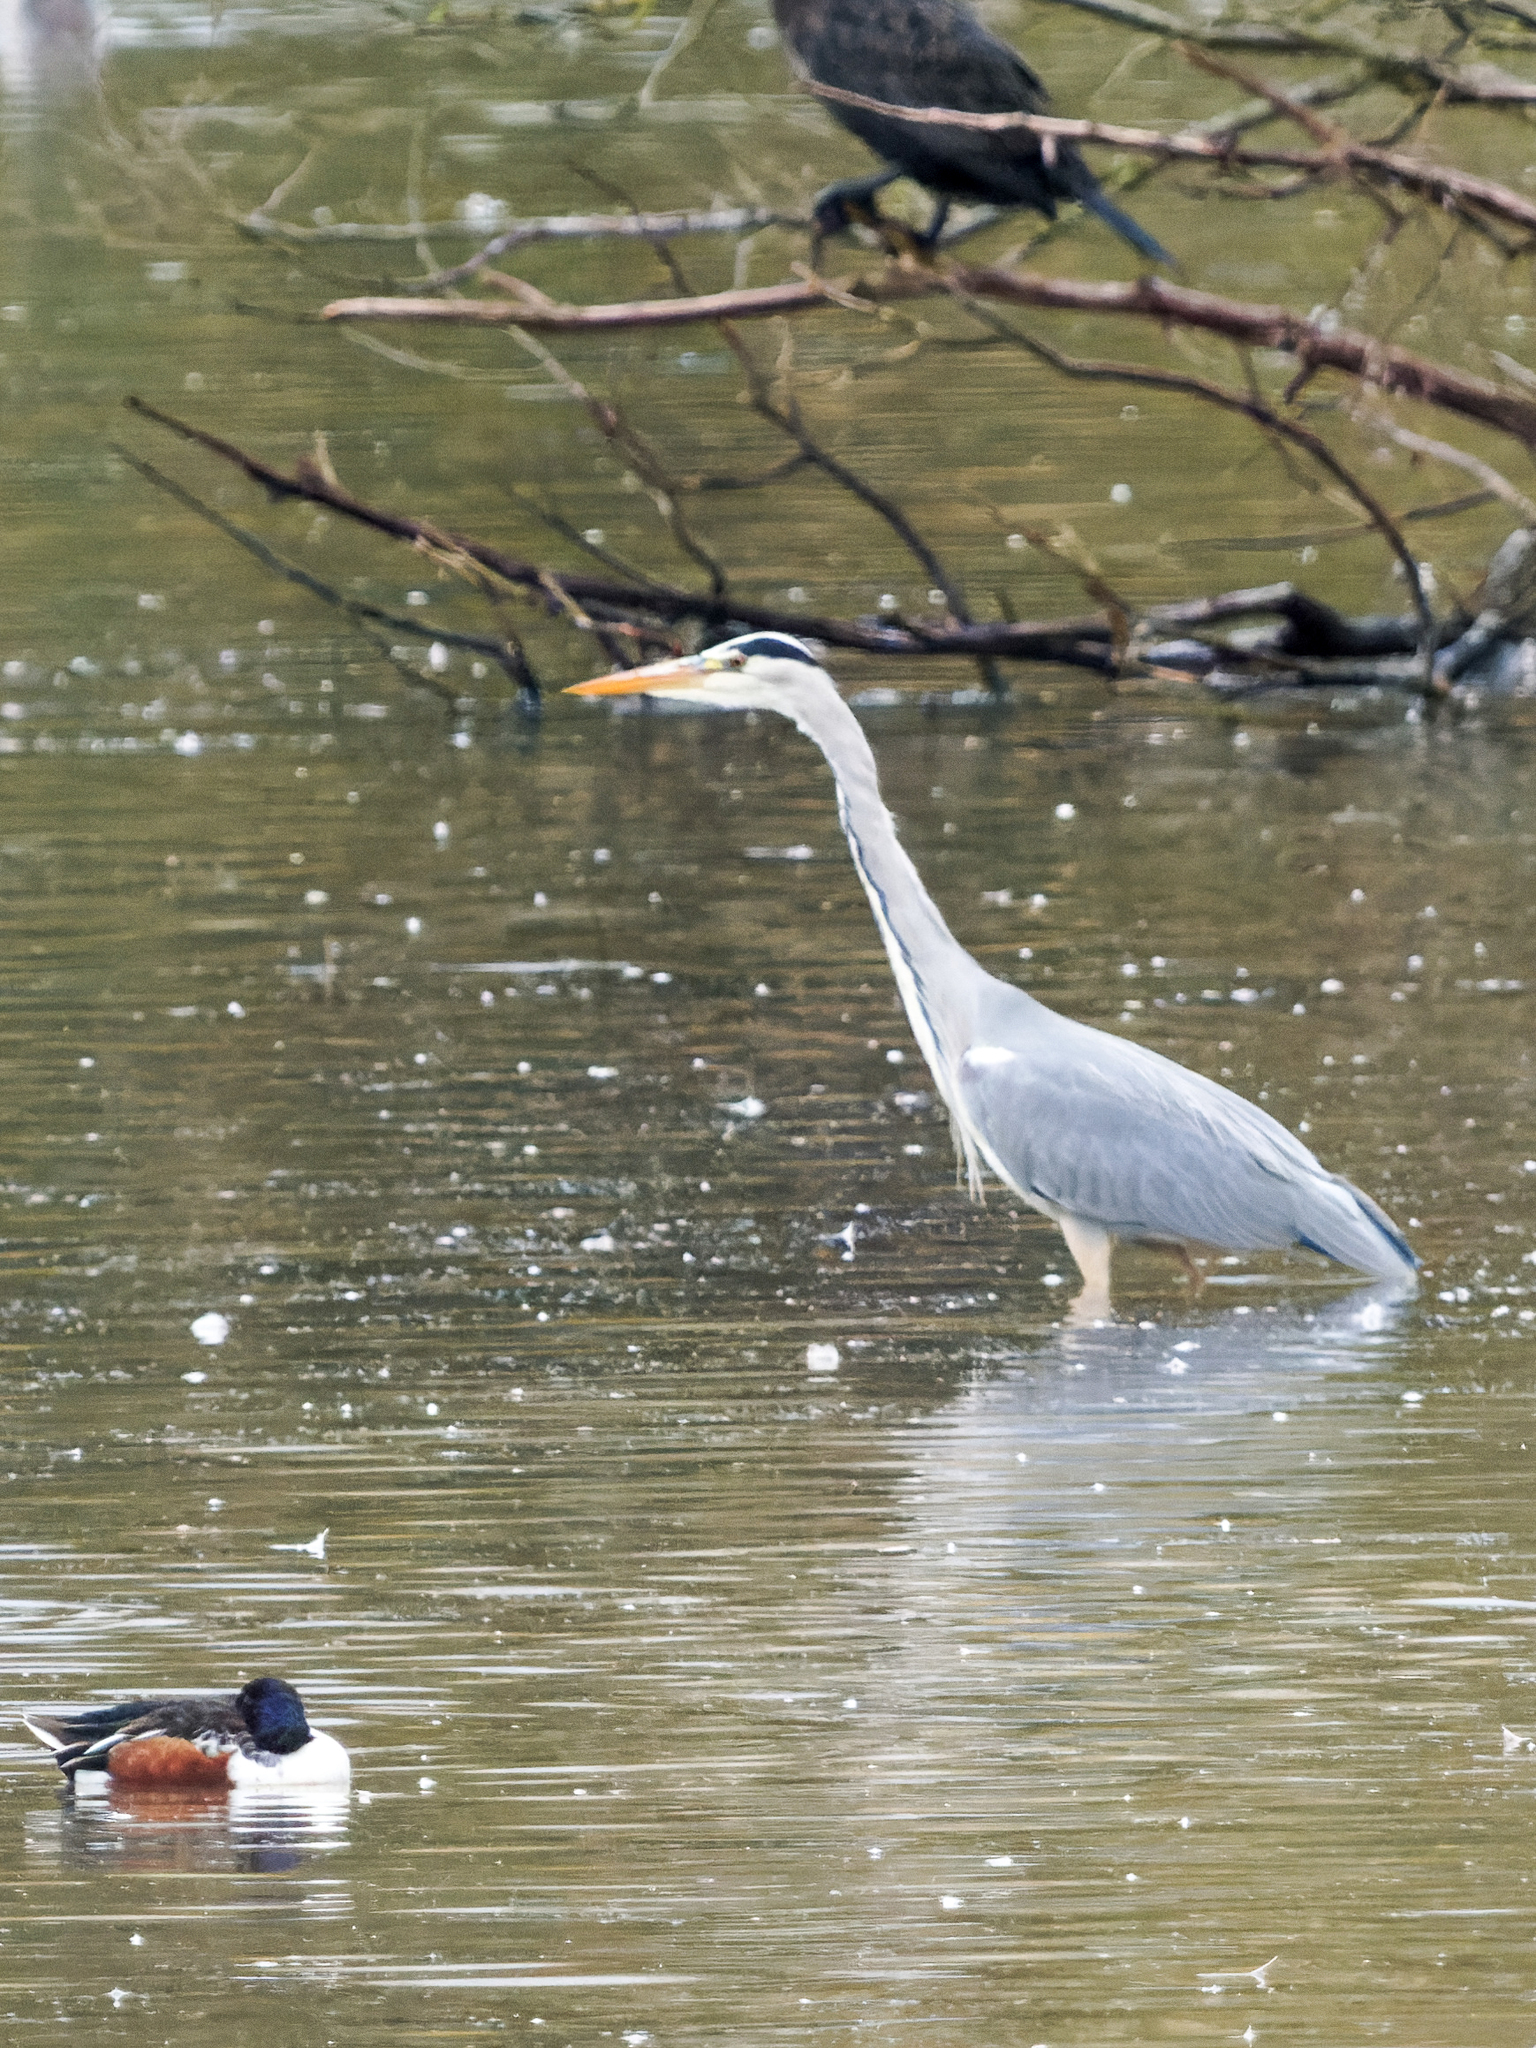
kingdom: Animalia
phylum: Chordata
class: Aves
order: Pelecaniformes
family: Ardeidae
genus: Ardea
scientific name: Ardea cinerea
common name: Grey heron
